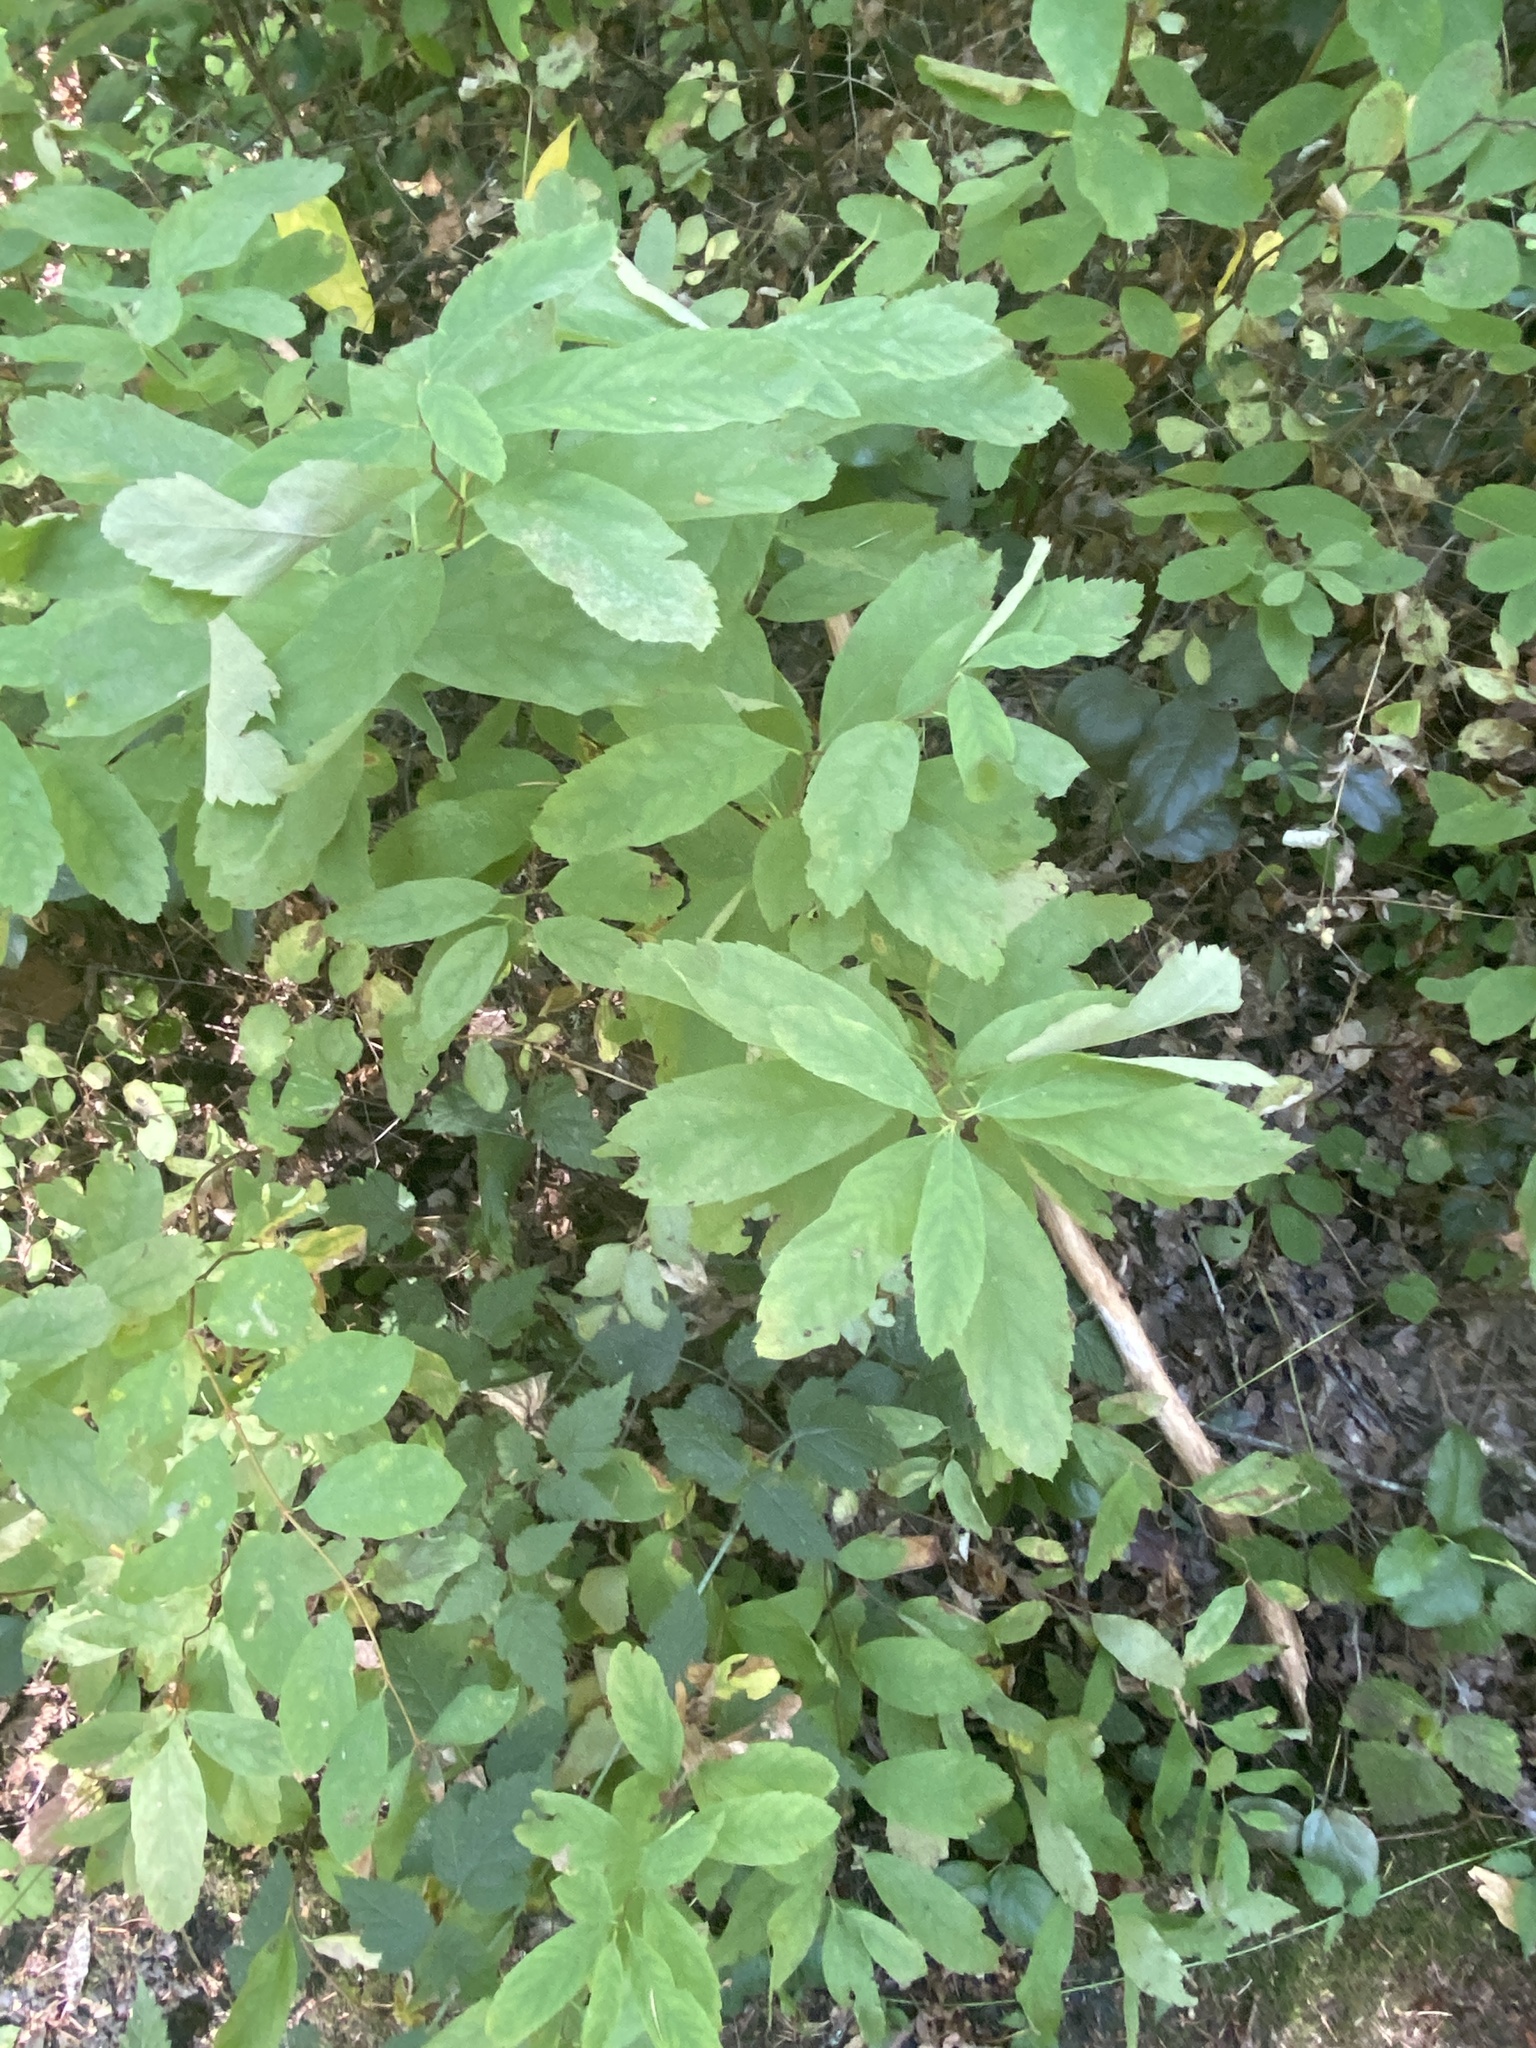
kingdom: Plantae
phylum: Tracheophyta
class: Magnoliopsida
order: Rosales
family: Rosaceae
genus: Spiraea
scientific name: Spiraea douglasii
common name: Steeplebush
